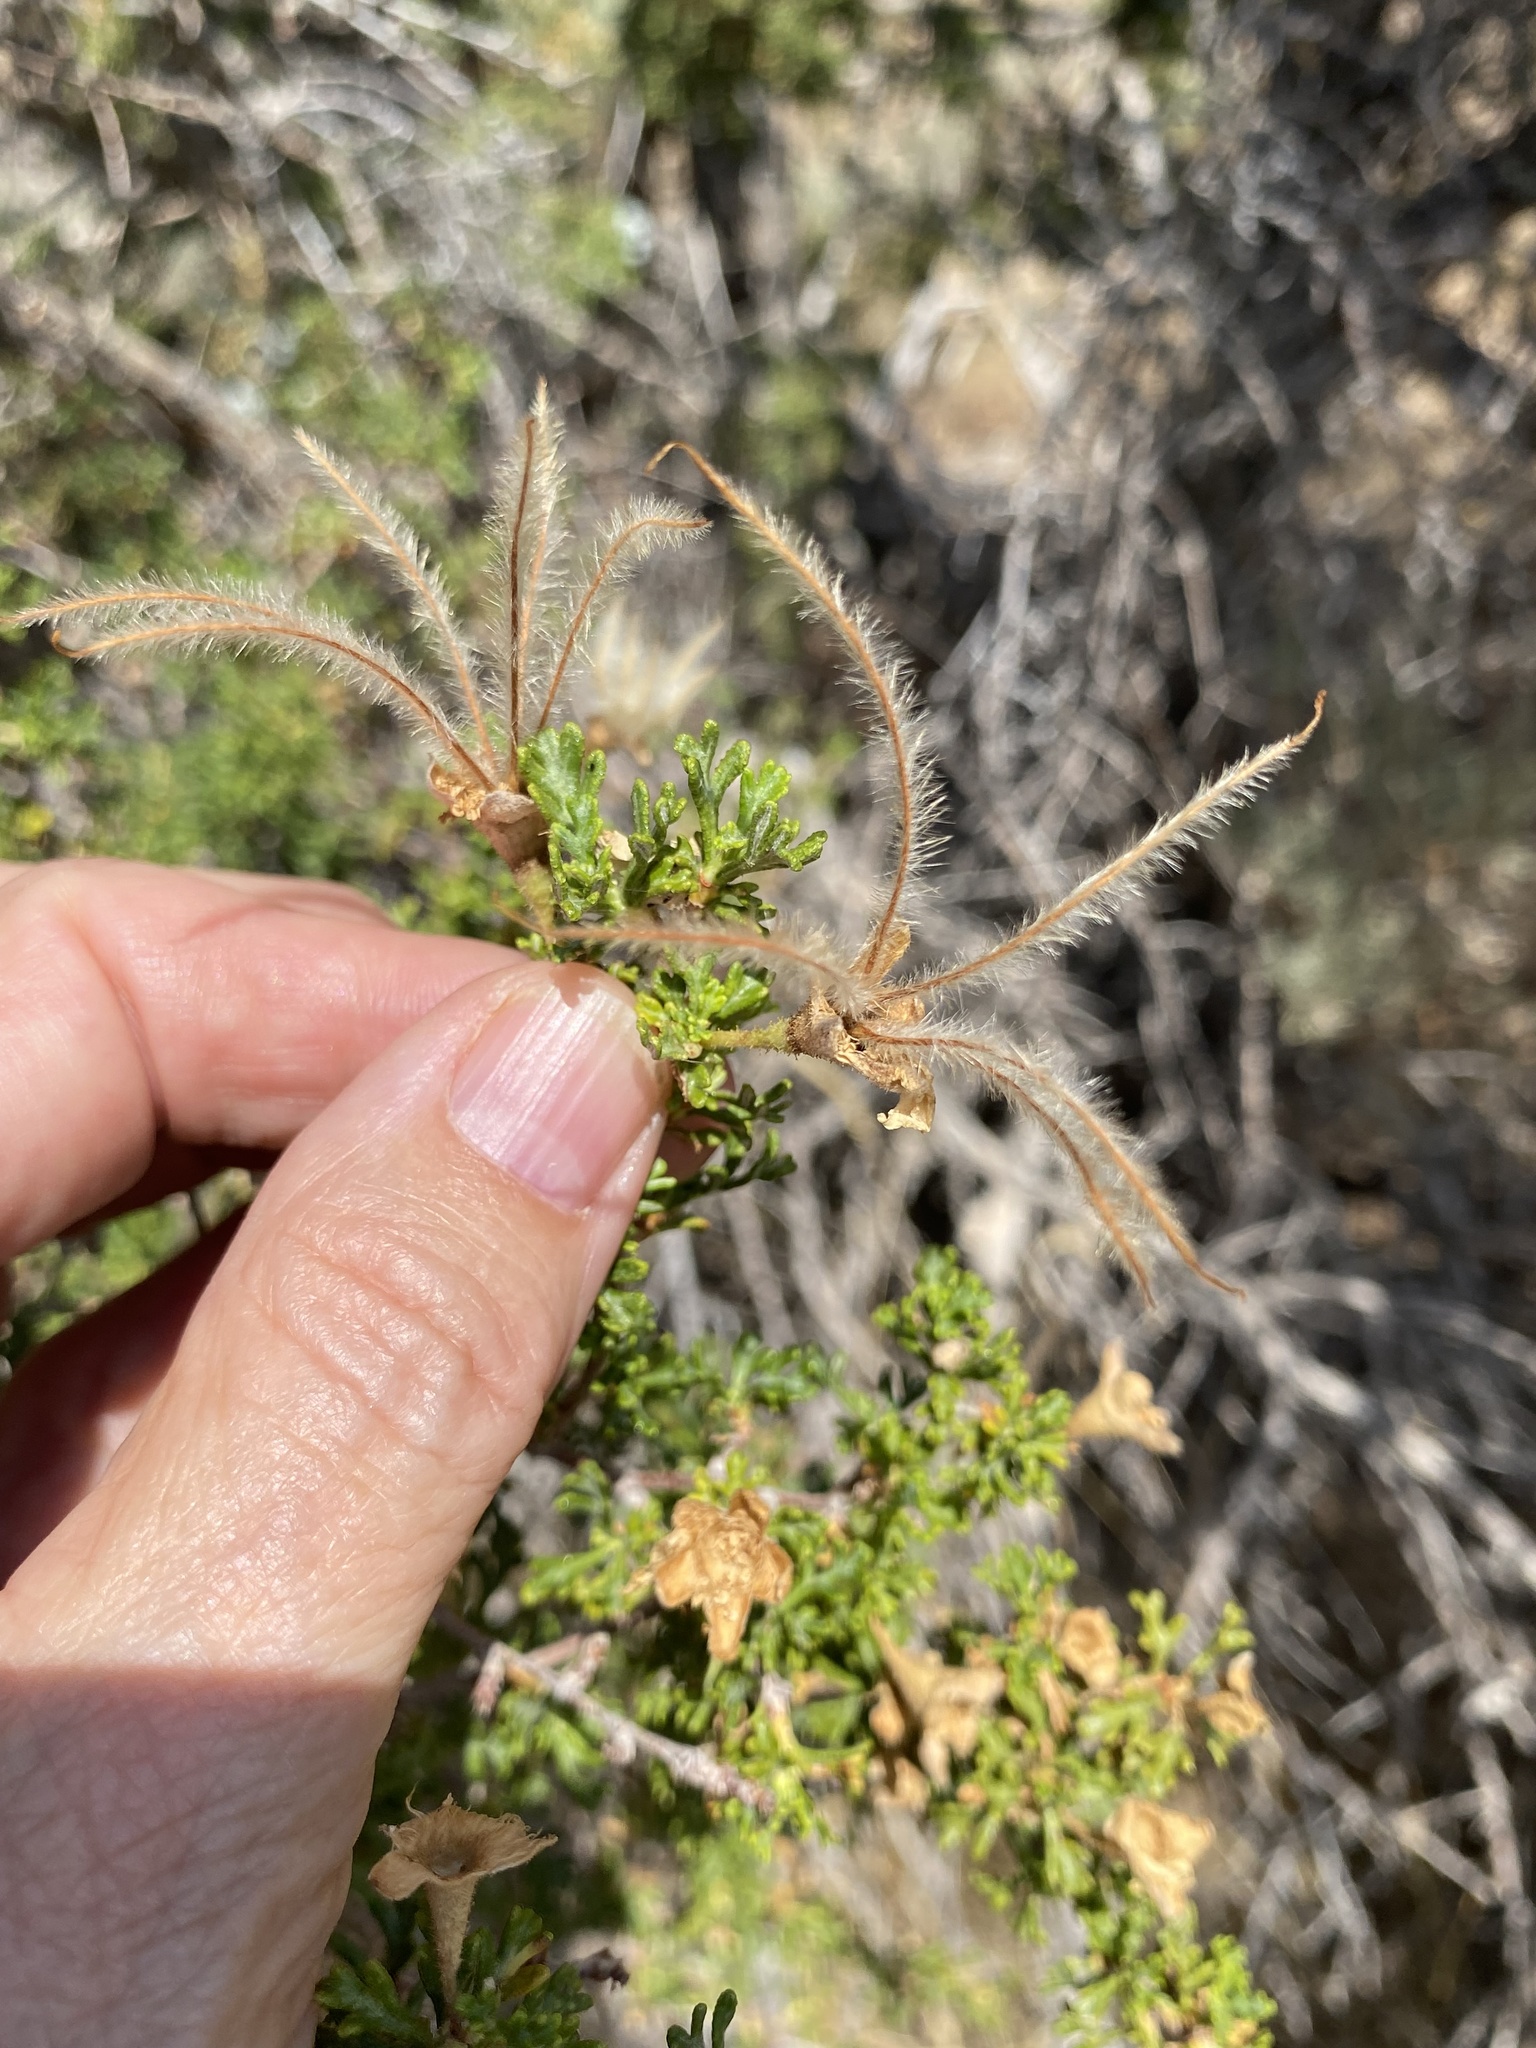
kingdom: Plantae
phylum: Tracheophyta
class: Magnoliopsida
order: Rosales
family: Rosaceae
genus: Purshia
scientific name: Purshia stansburiana
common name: Stansbury's cliffrose
